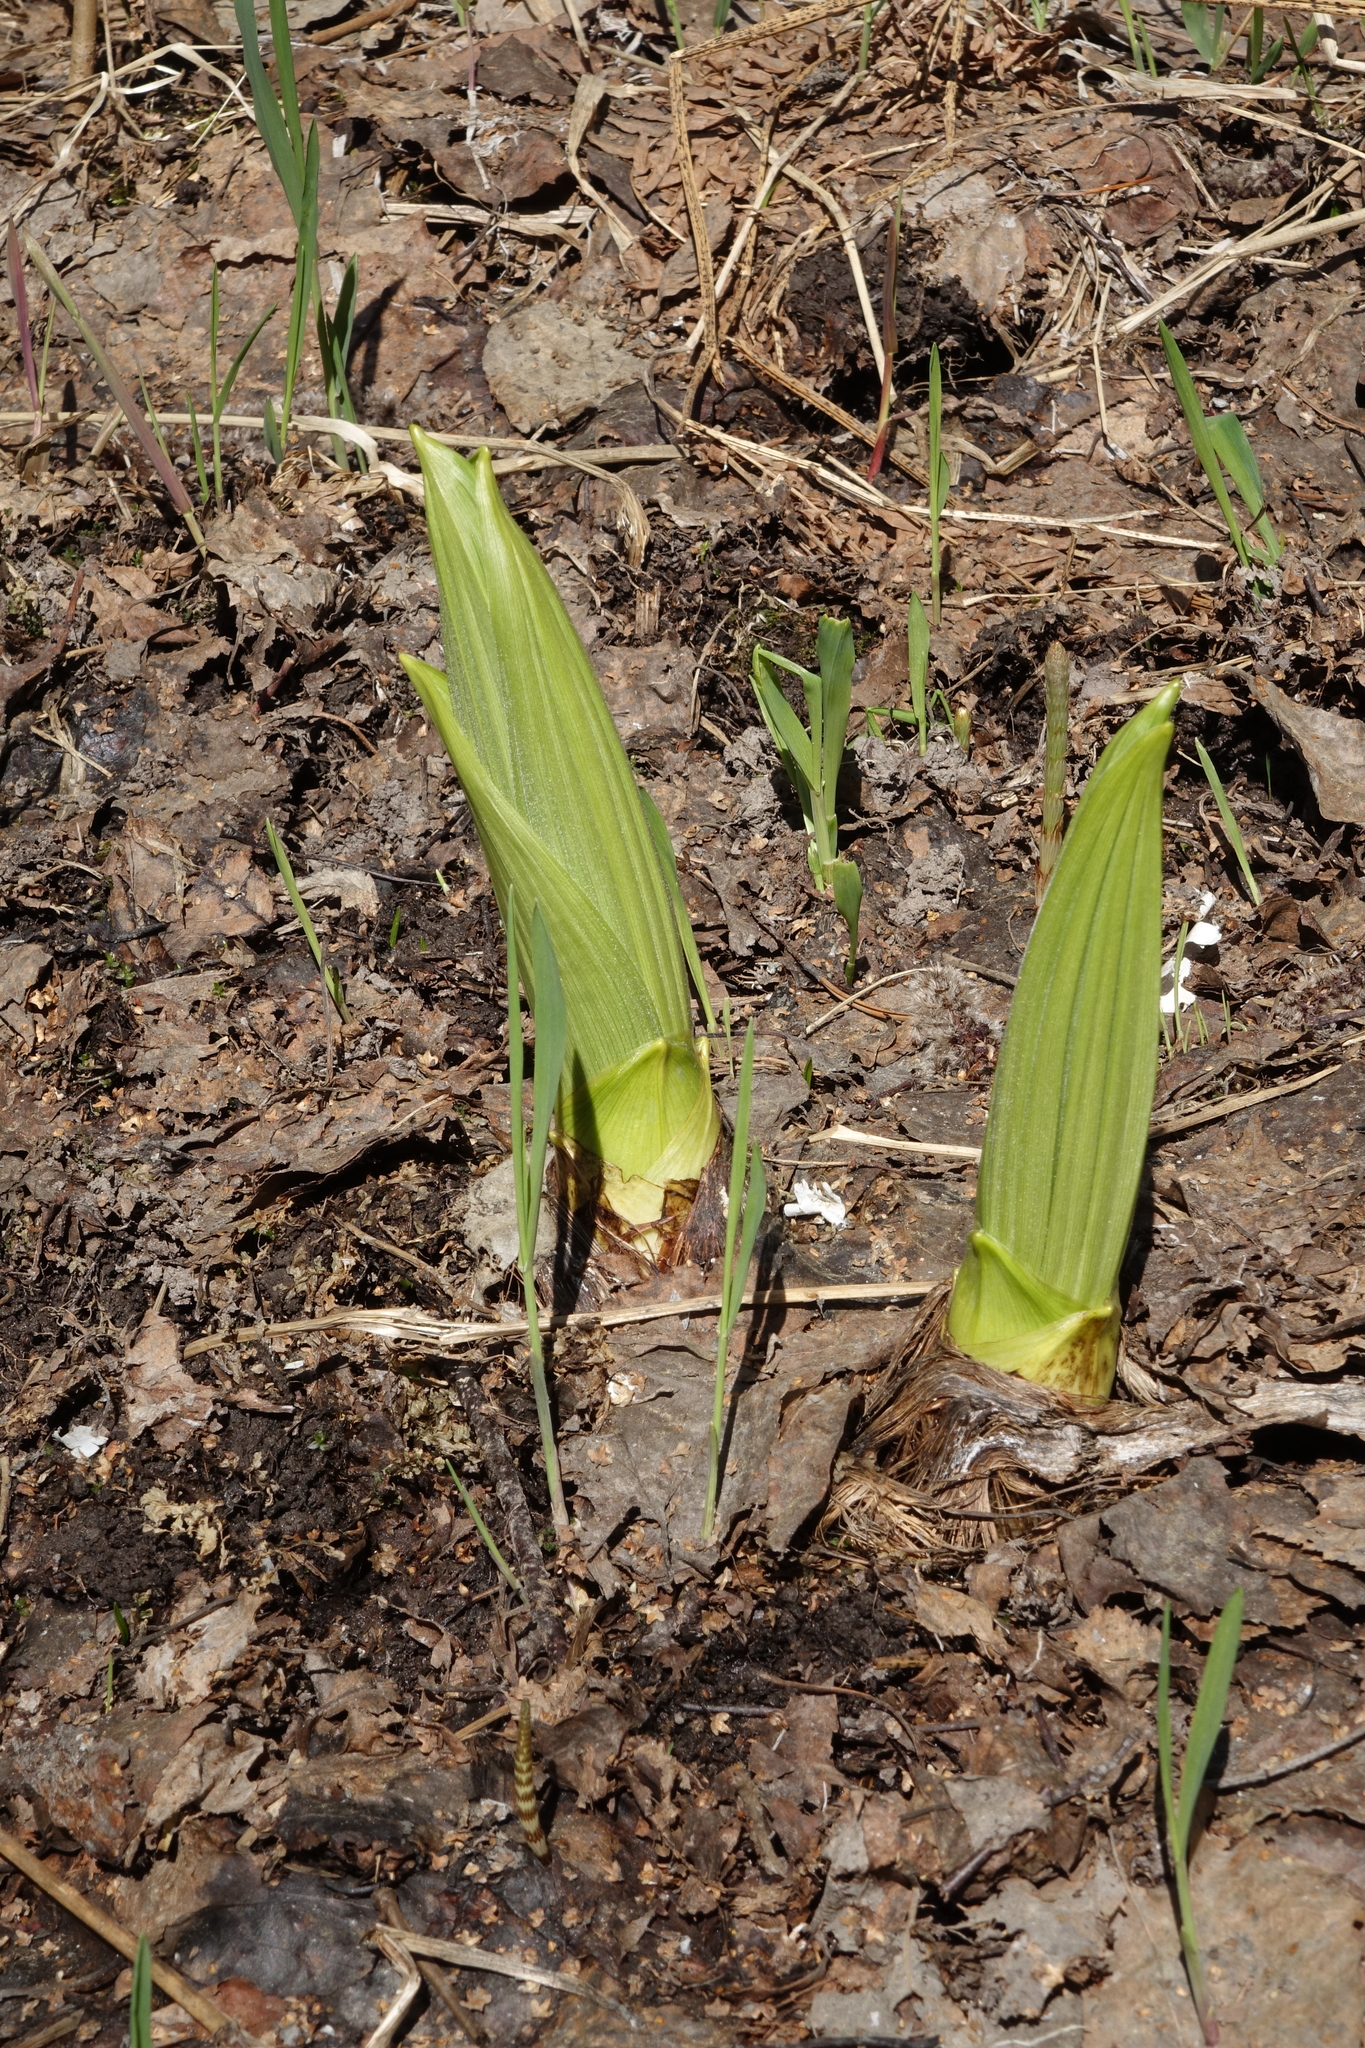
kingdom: Plantae
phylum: Tracheophyta
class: Liliopsida
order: Liliales
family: Melanthiaceae
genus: Veratrum
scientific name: Veratrum lobelianum
